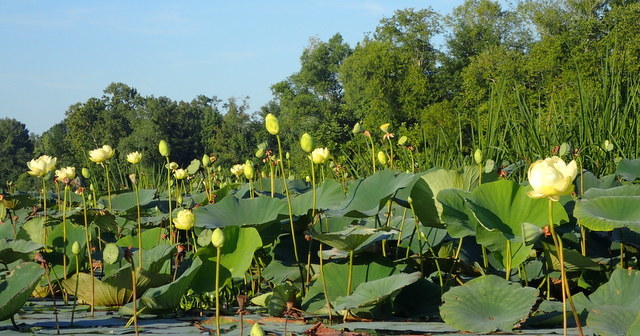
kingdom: Plantae
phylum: Tracheophyta
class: Magnoliopsida
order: Proteales
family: Nelumbonaceae
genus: Nelumbo
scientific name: Nelumbo lutea
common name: American lotus
